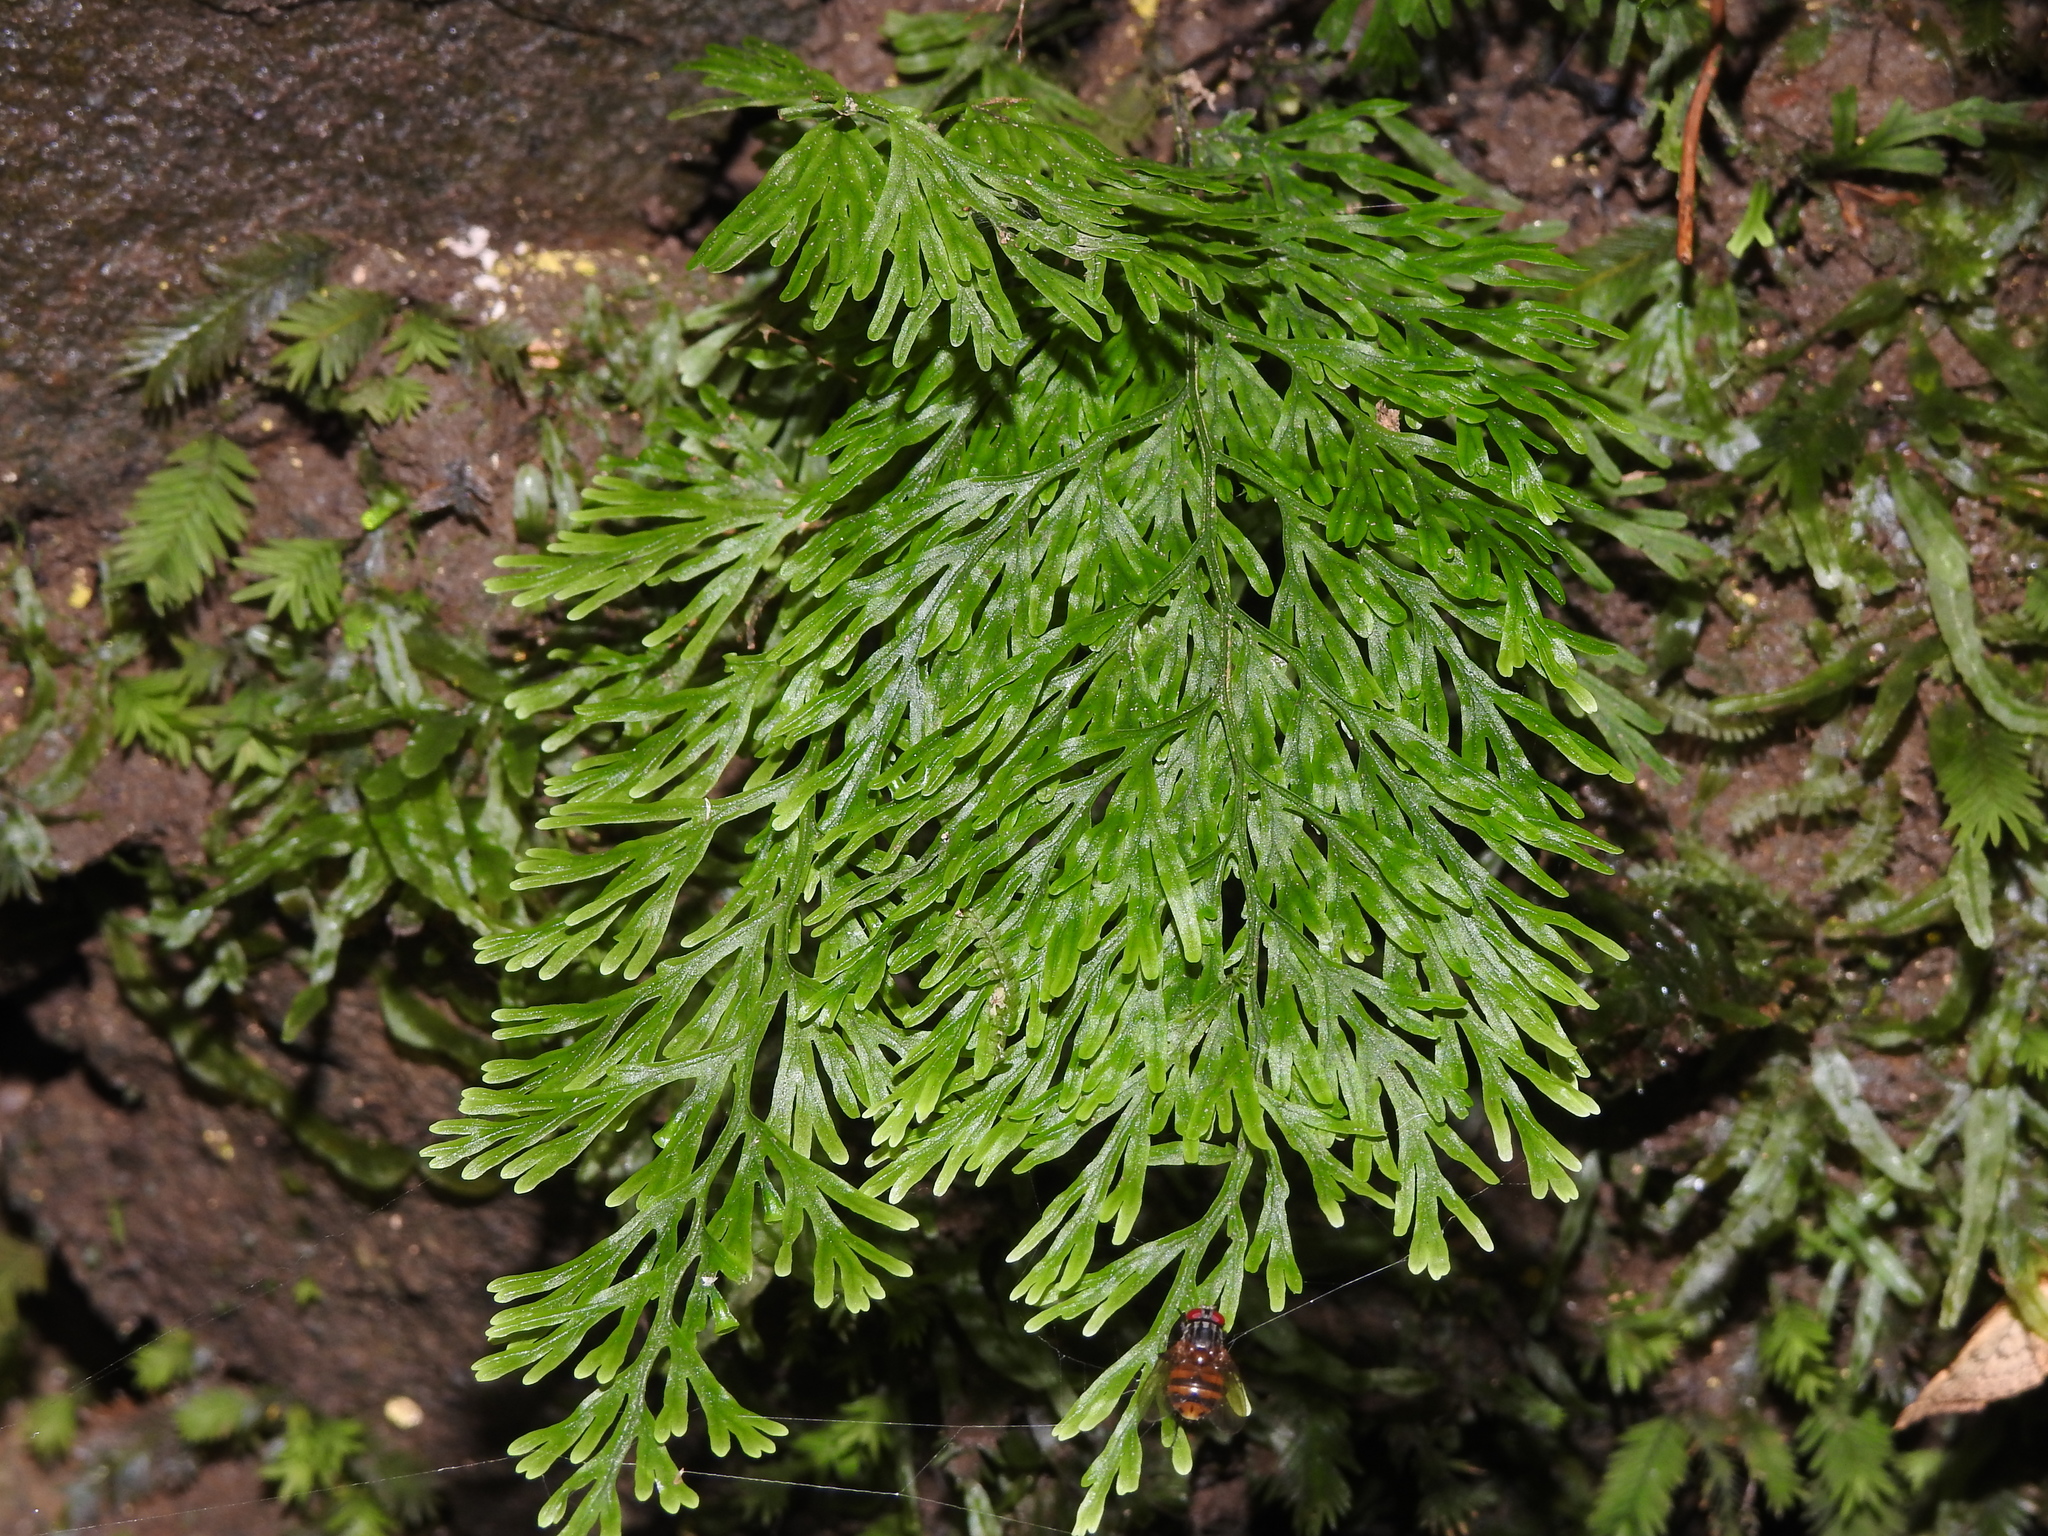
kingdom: Plantae
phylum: Tracheophyta
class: Polypodiopsida
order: Hymenophyllales
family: Hymenophyllaceae
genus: Vandenboschia
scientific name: Vandenboschia maxima
